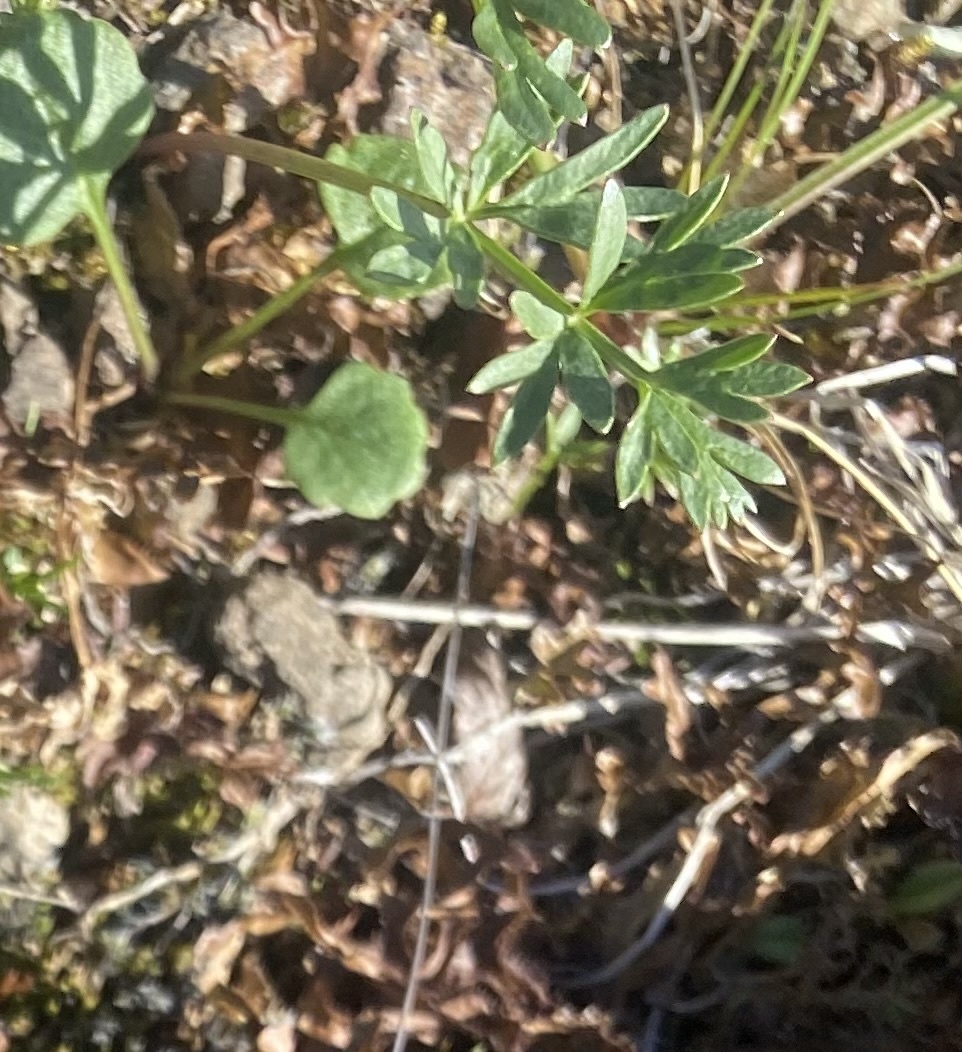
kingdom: Plantae
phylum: Tracheophyta
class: Magnoliopsida
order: Apiales
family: Apiaceae
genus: Pachypleurum
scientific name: Pachypleurum mutellinoides
